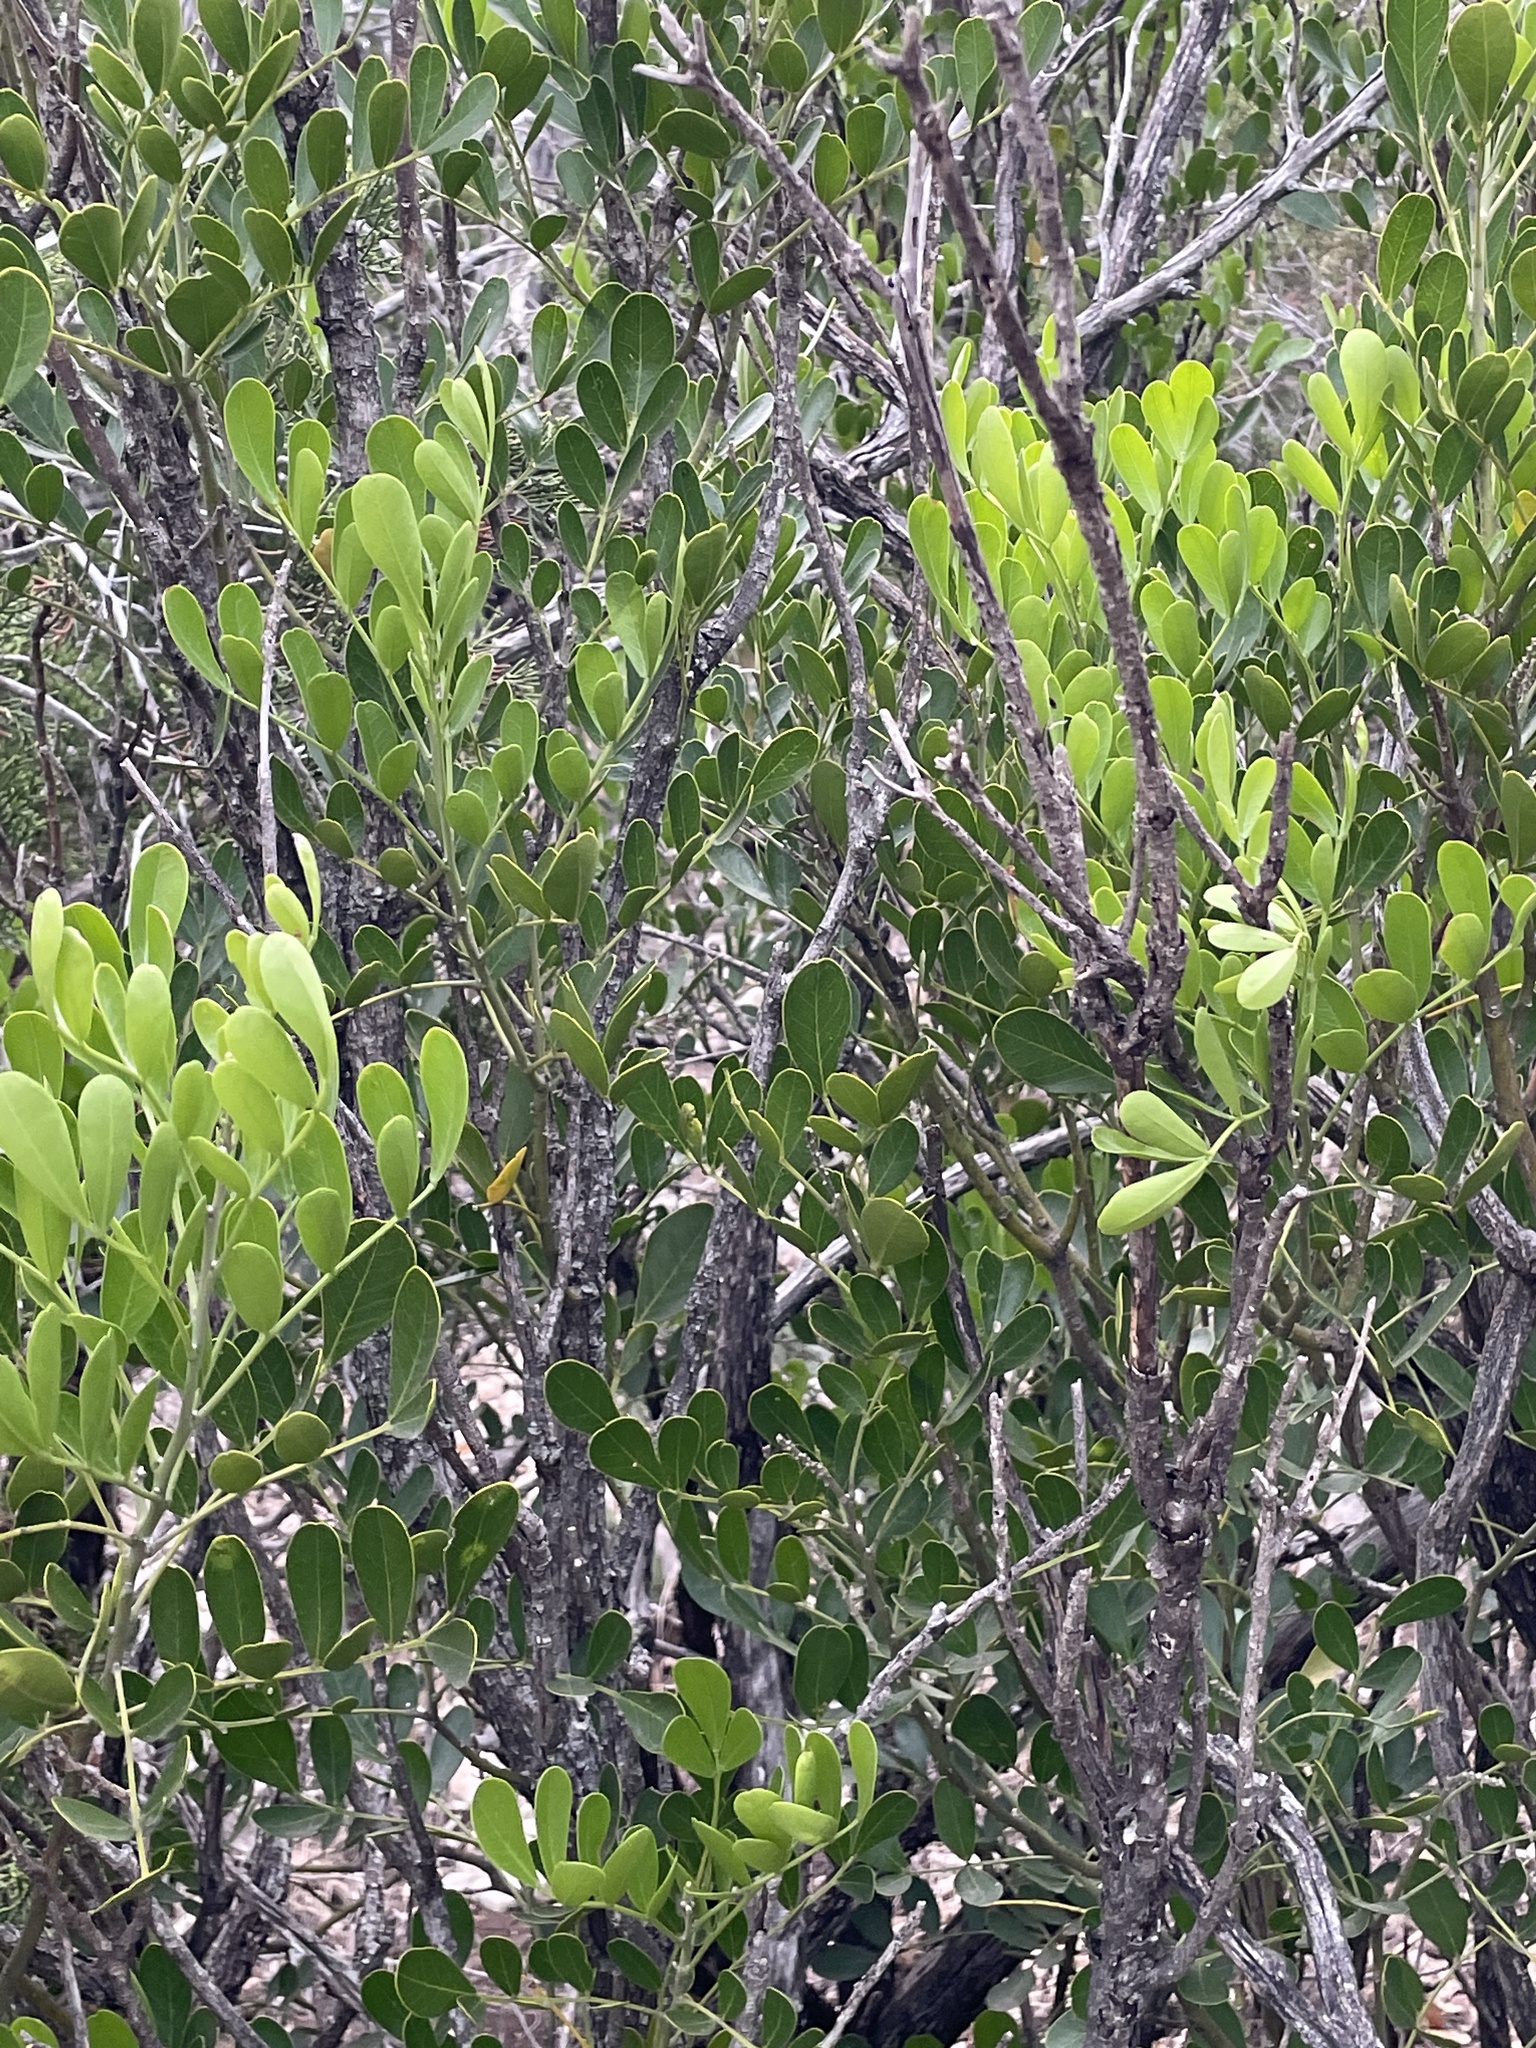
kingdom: Plantae
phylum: Tracheophyta
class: Magnoliopsida
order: Fabales
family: Fabaceae
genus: Dermatophyllum
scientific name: Dermatophyllum secundiflorum
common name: Texas-mountain-laurel
